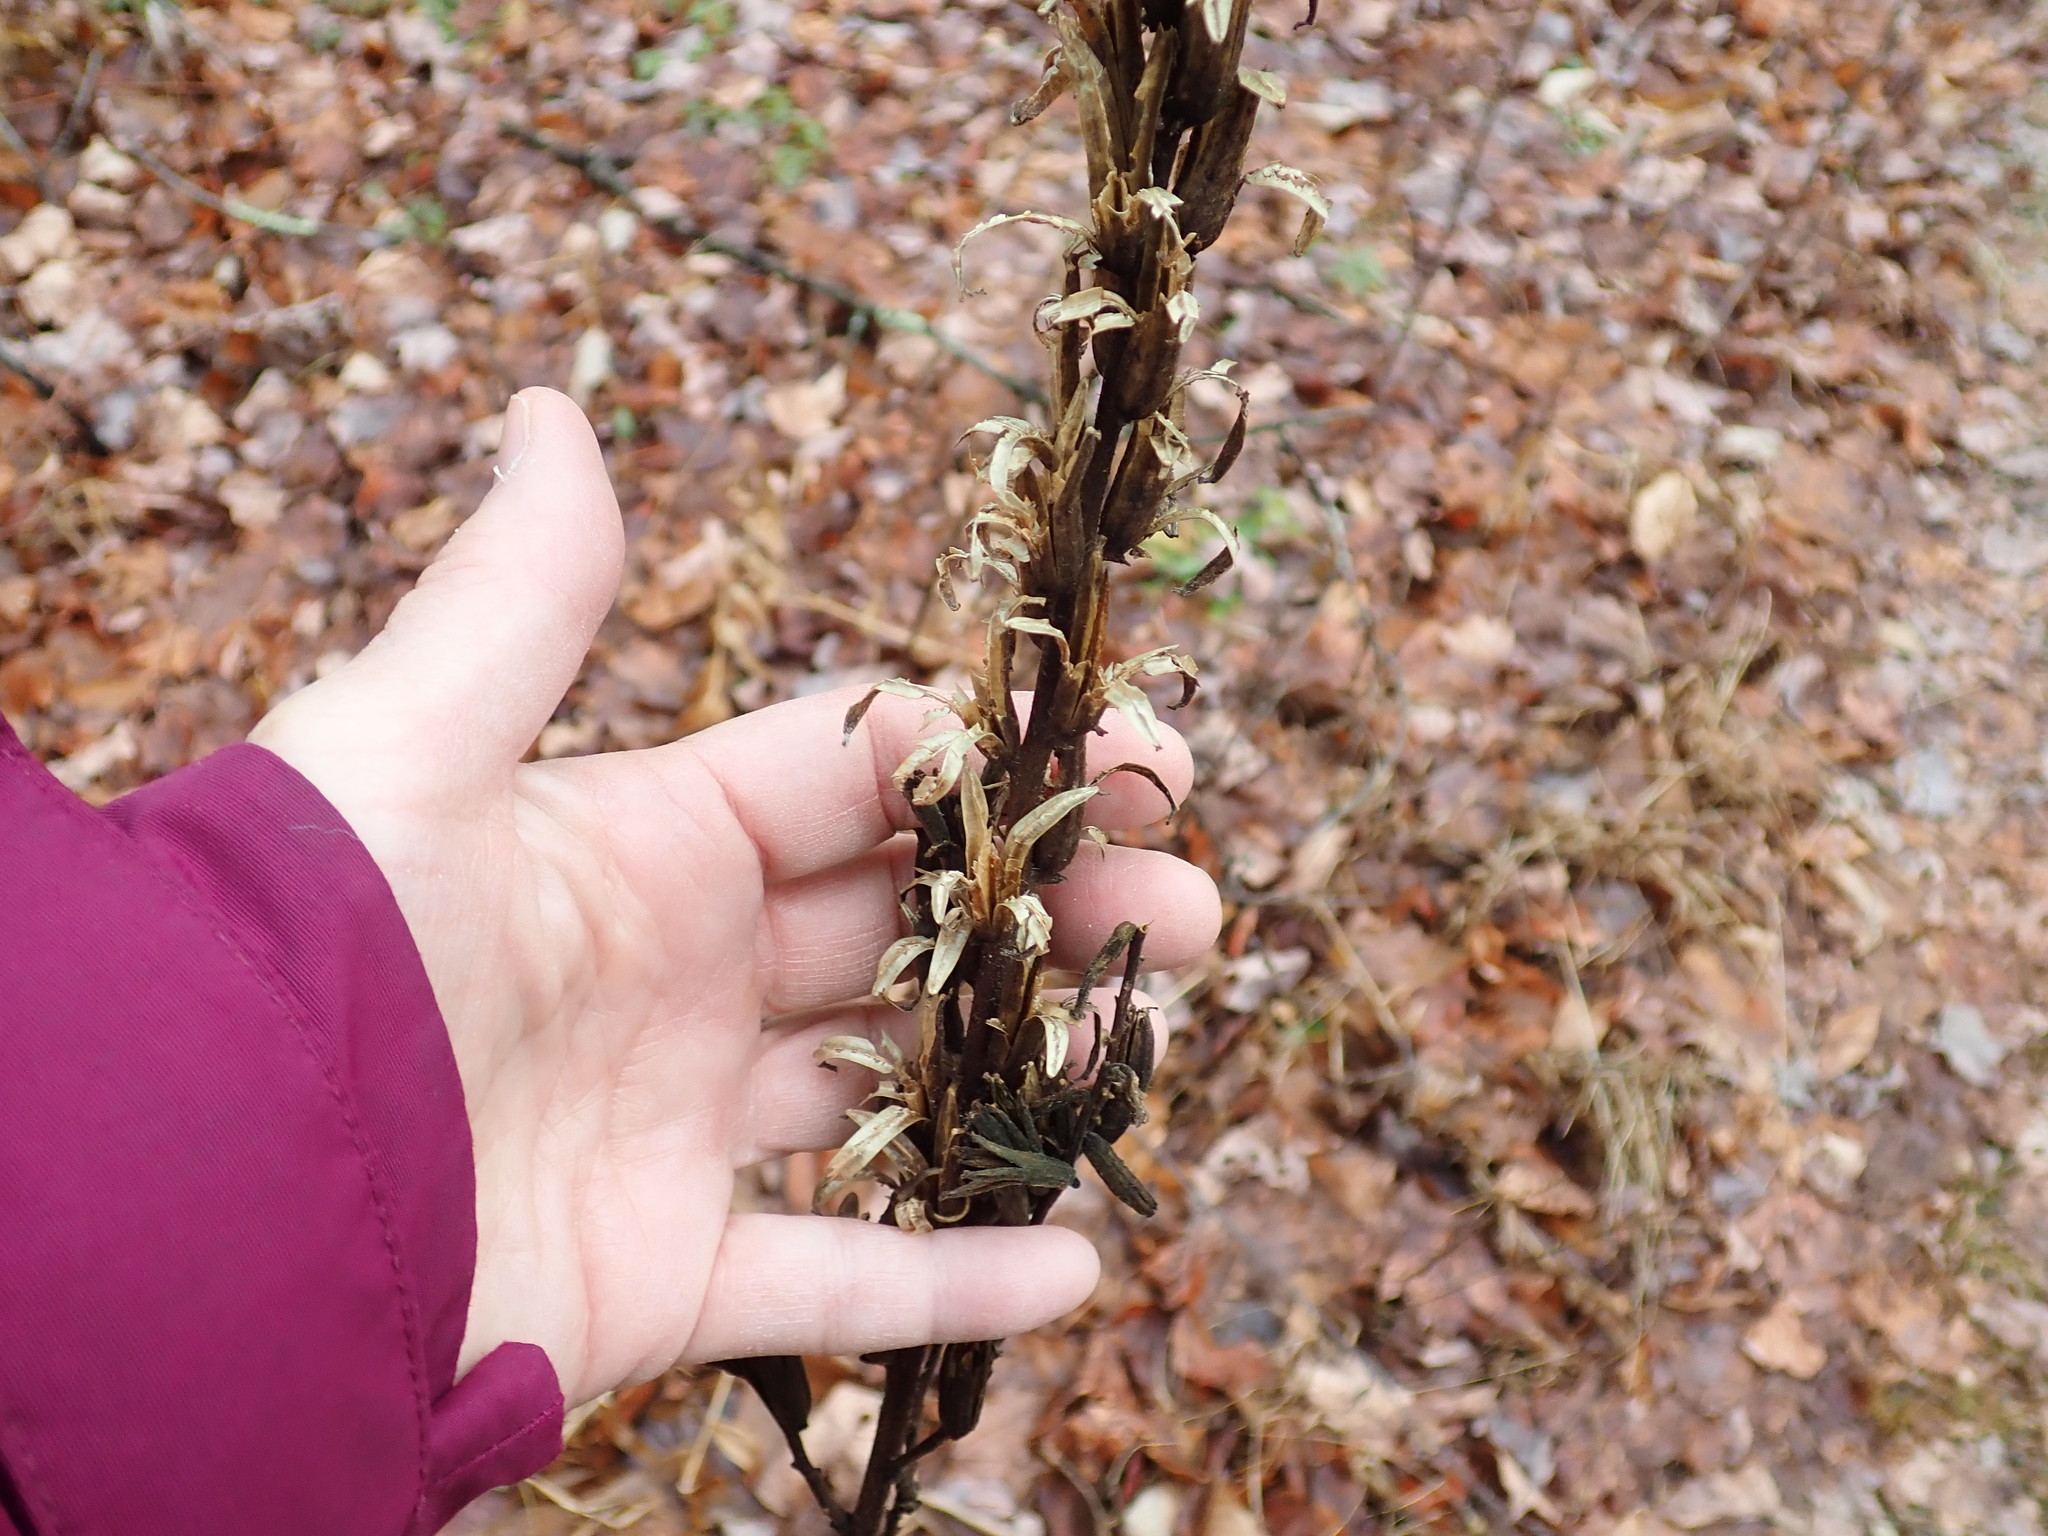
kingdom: Plantae
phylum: Tracheophyta
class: Magnoliopsida
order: Myrtales
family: Onagraceae
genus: Oenothera
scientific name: Oenothera biennis
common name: Common evening-primrose
